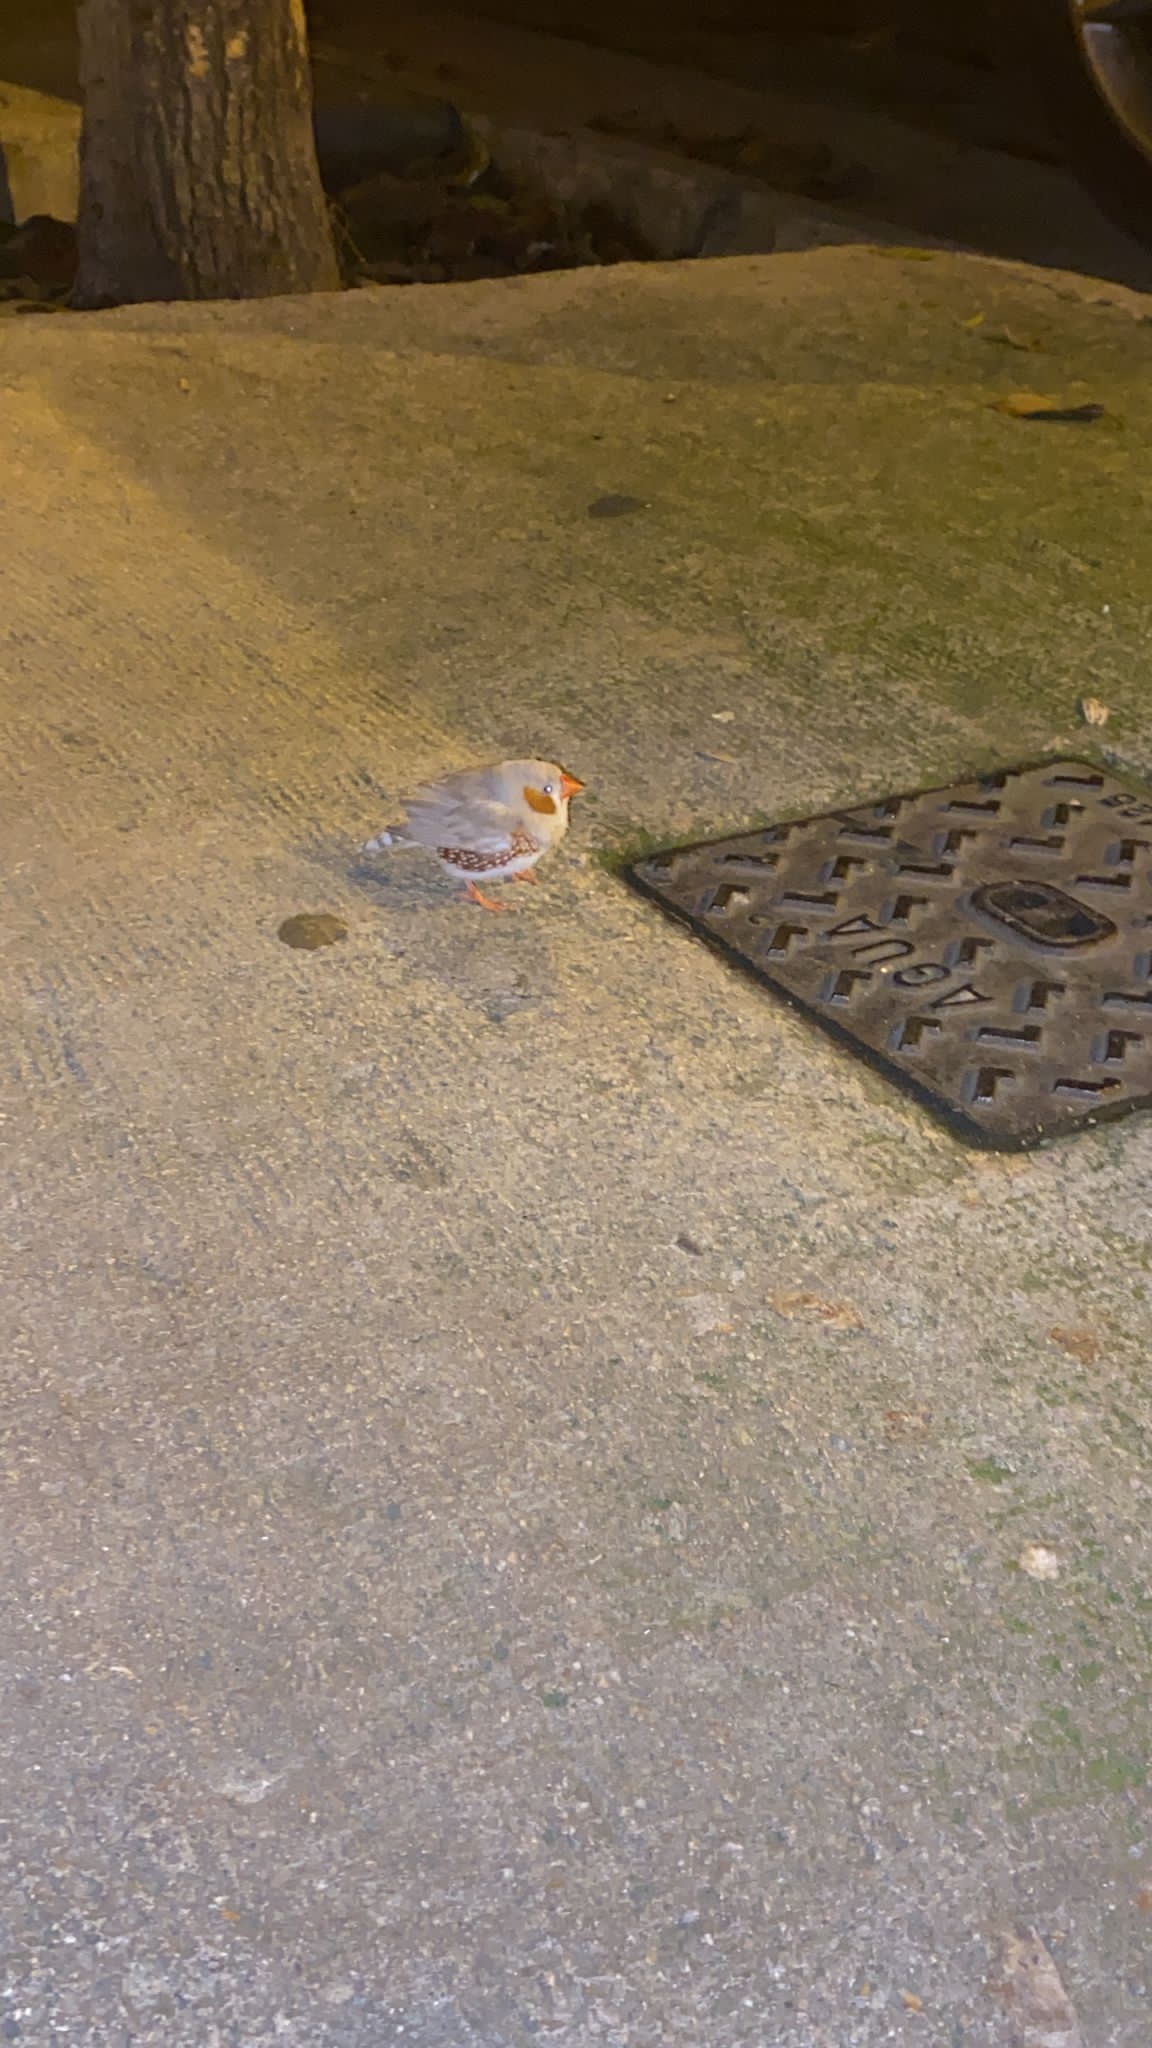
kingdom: Animalia
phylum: Chordata
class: Aves
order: Passeriformes
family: Estrildidae
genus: Taeniopygia
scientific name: Taeniopygia guttata
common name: Zebra finch
